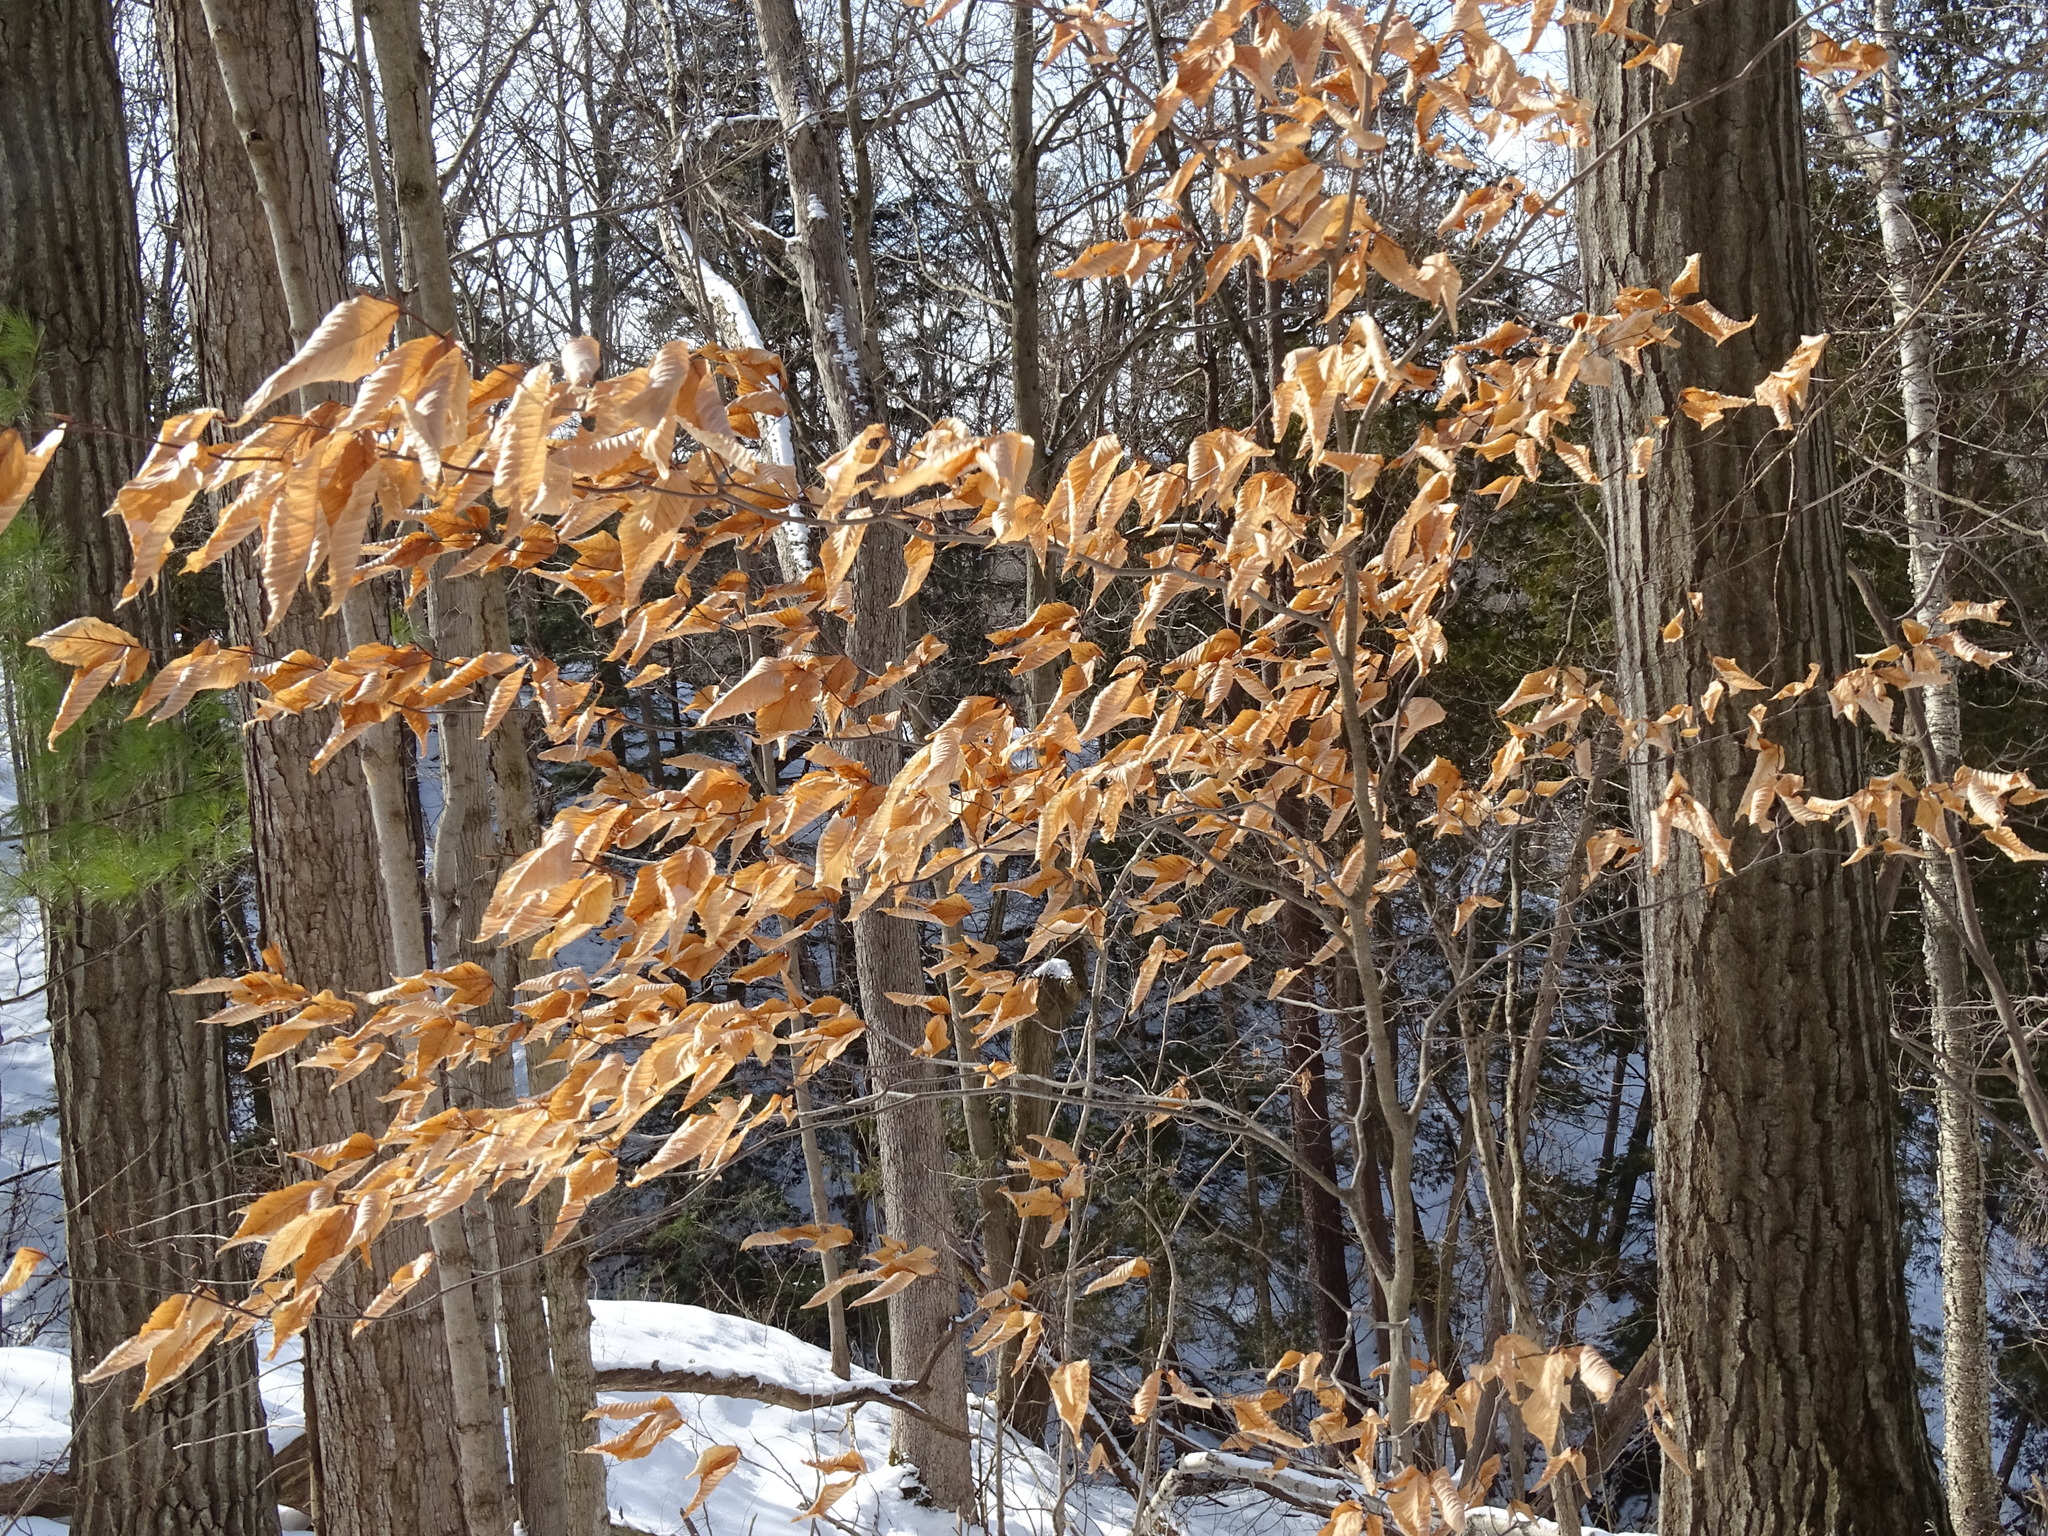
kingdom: Plantae
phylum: Tracheophyta
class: Magnoliopsida
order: Fagales
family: Fagaceae
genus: Fagus
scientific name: Fagus grandifolia
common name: American beech
